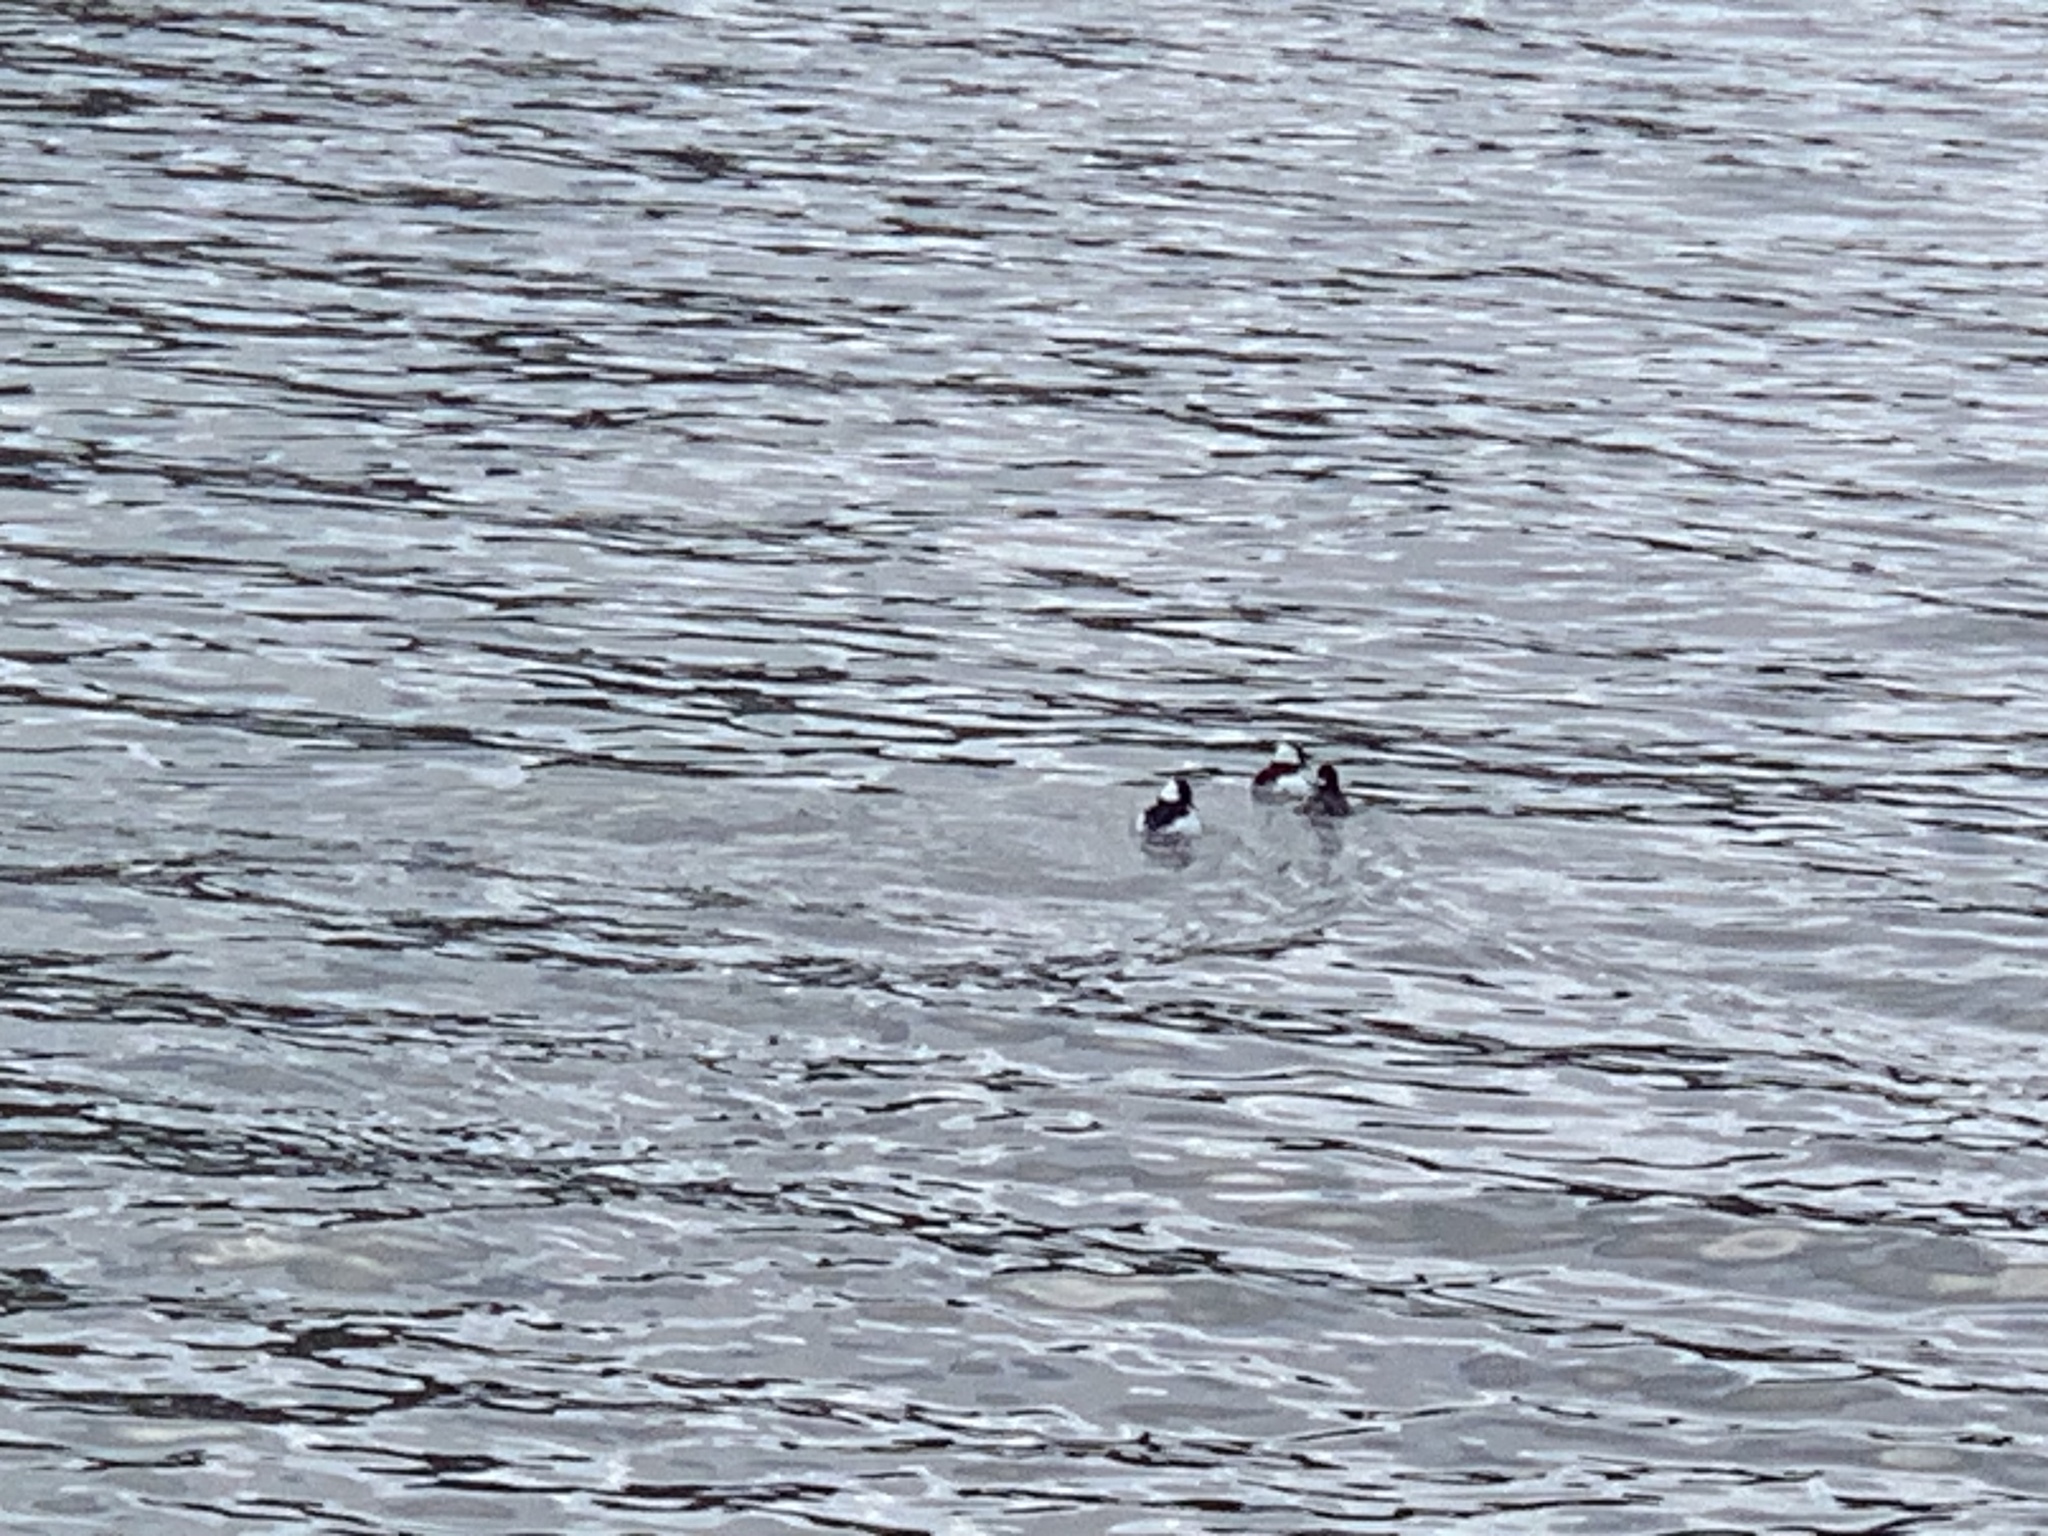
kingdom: Animalia
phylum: Chordata
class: Aves
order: Anseriformes
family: Anatidae
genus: Bucephala
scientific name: Bucephala albeola
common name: Bufflehead
